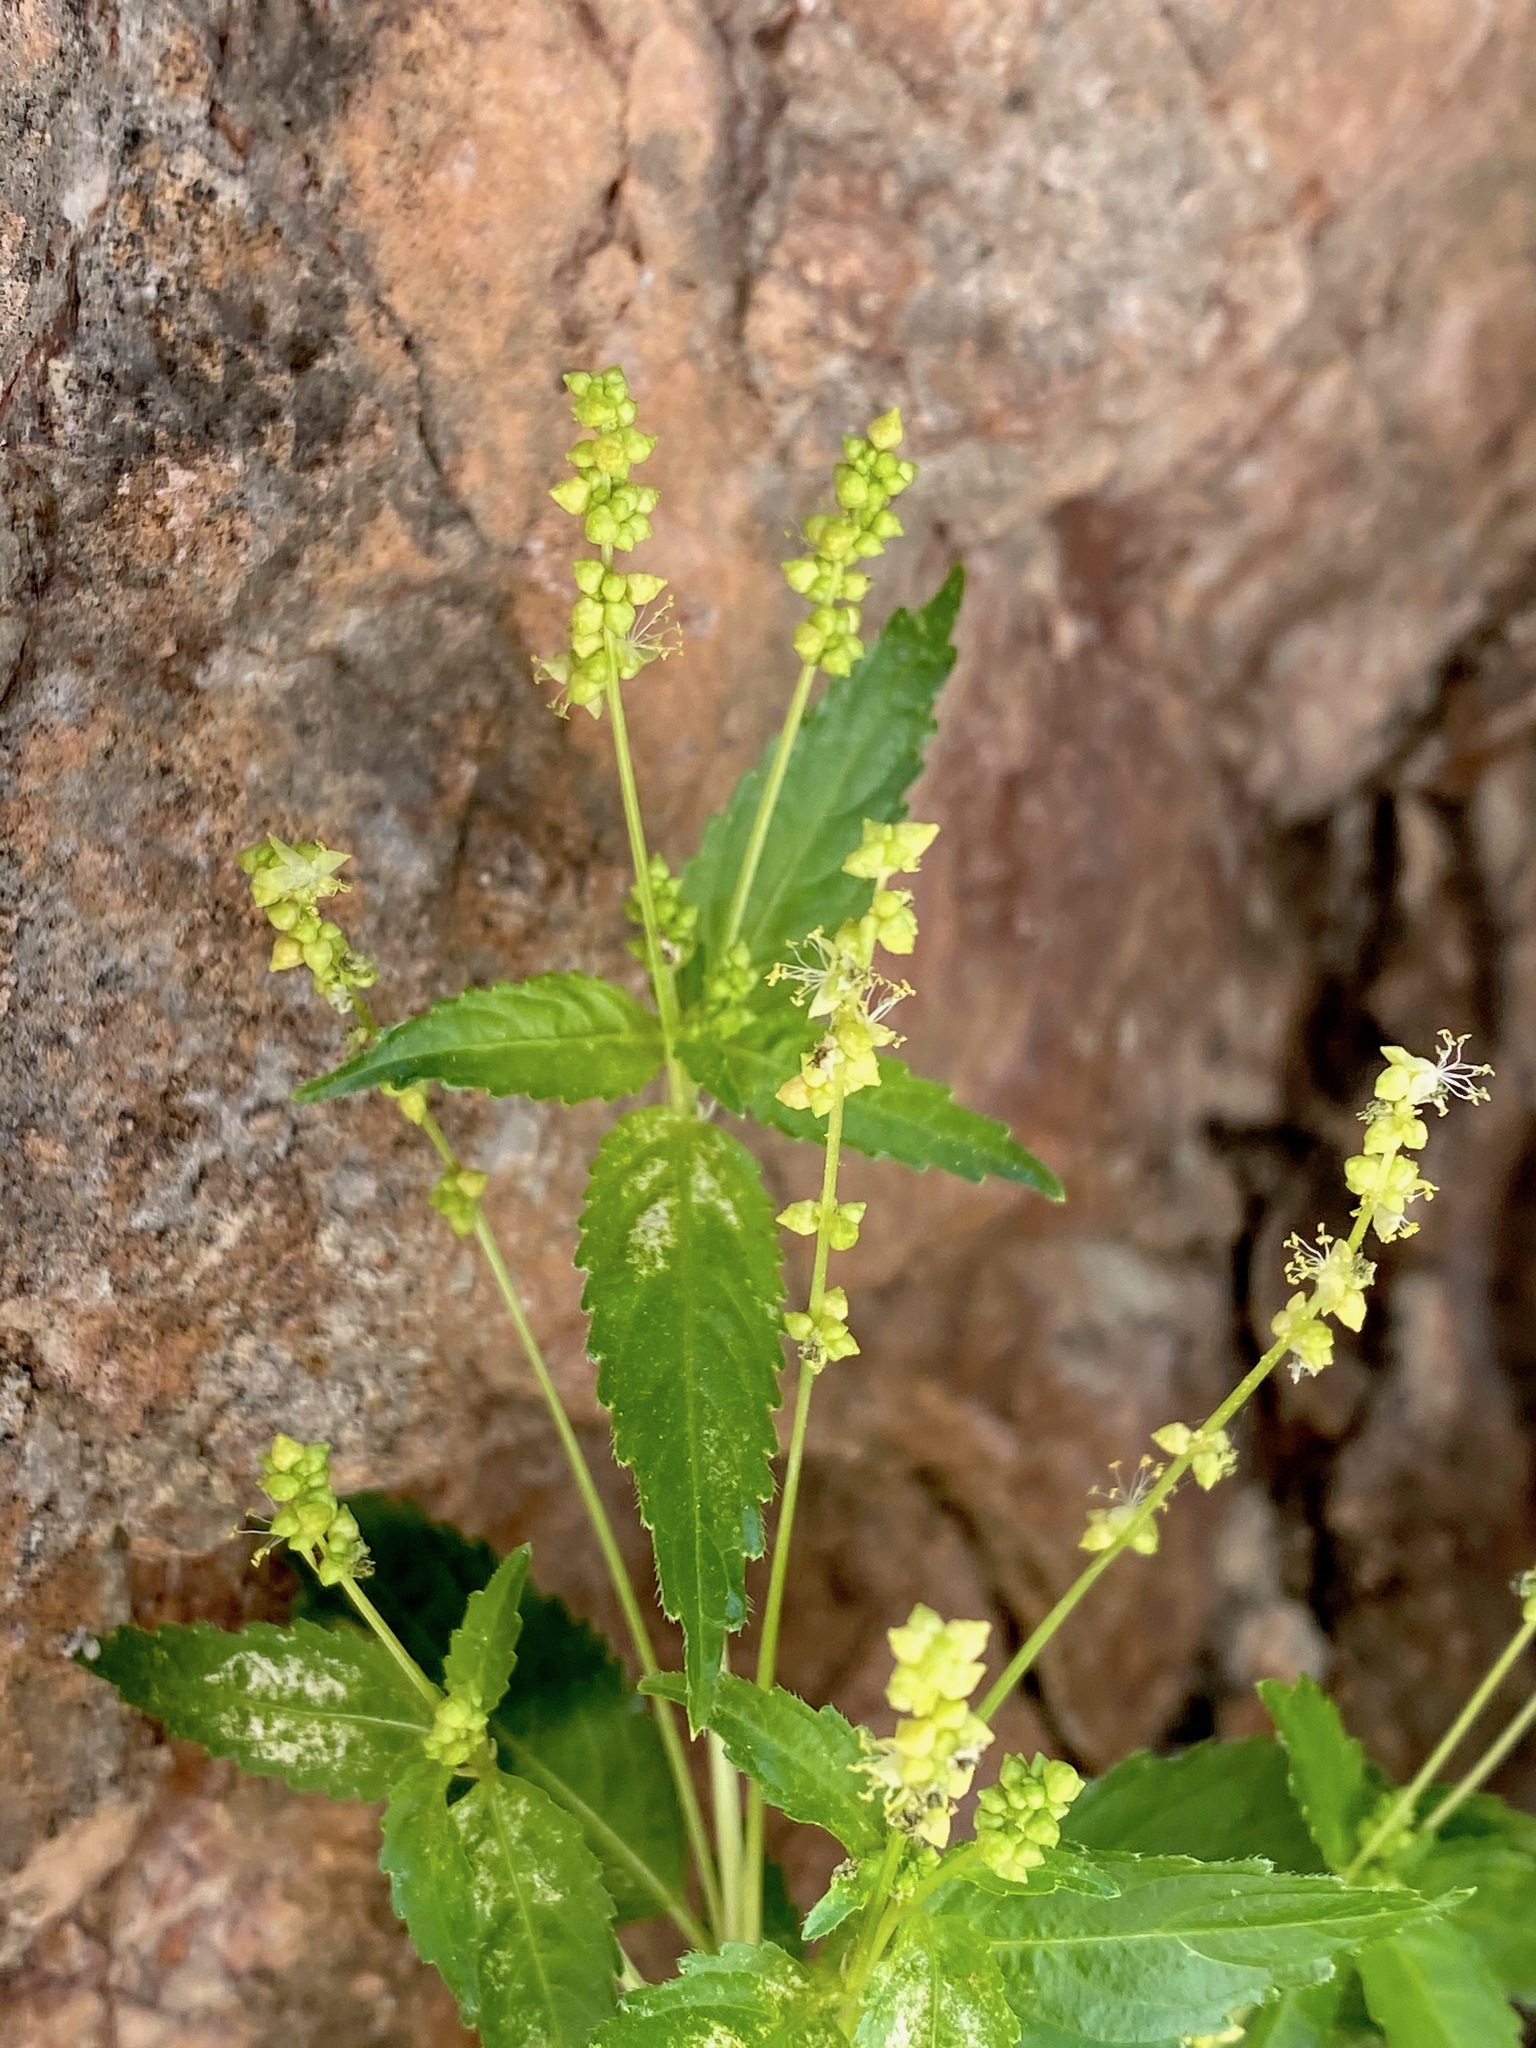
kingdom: Plantae
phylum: Tracheophyta
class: Magnoliopsida
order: Malpighiales
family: Euphorbiaceae
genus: Mercurialis
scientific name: Mercurialis annua
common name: Annual mercury
